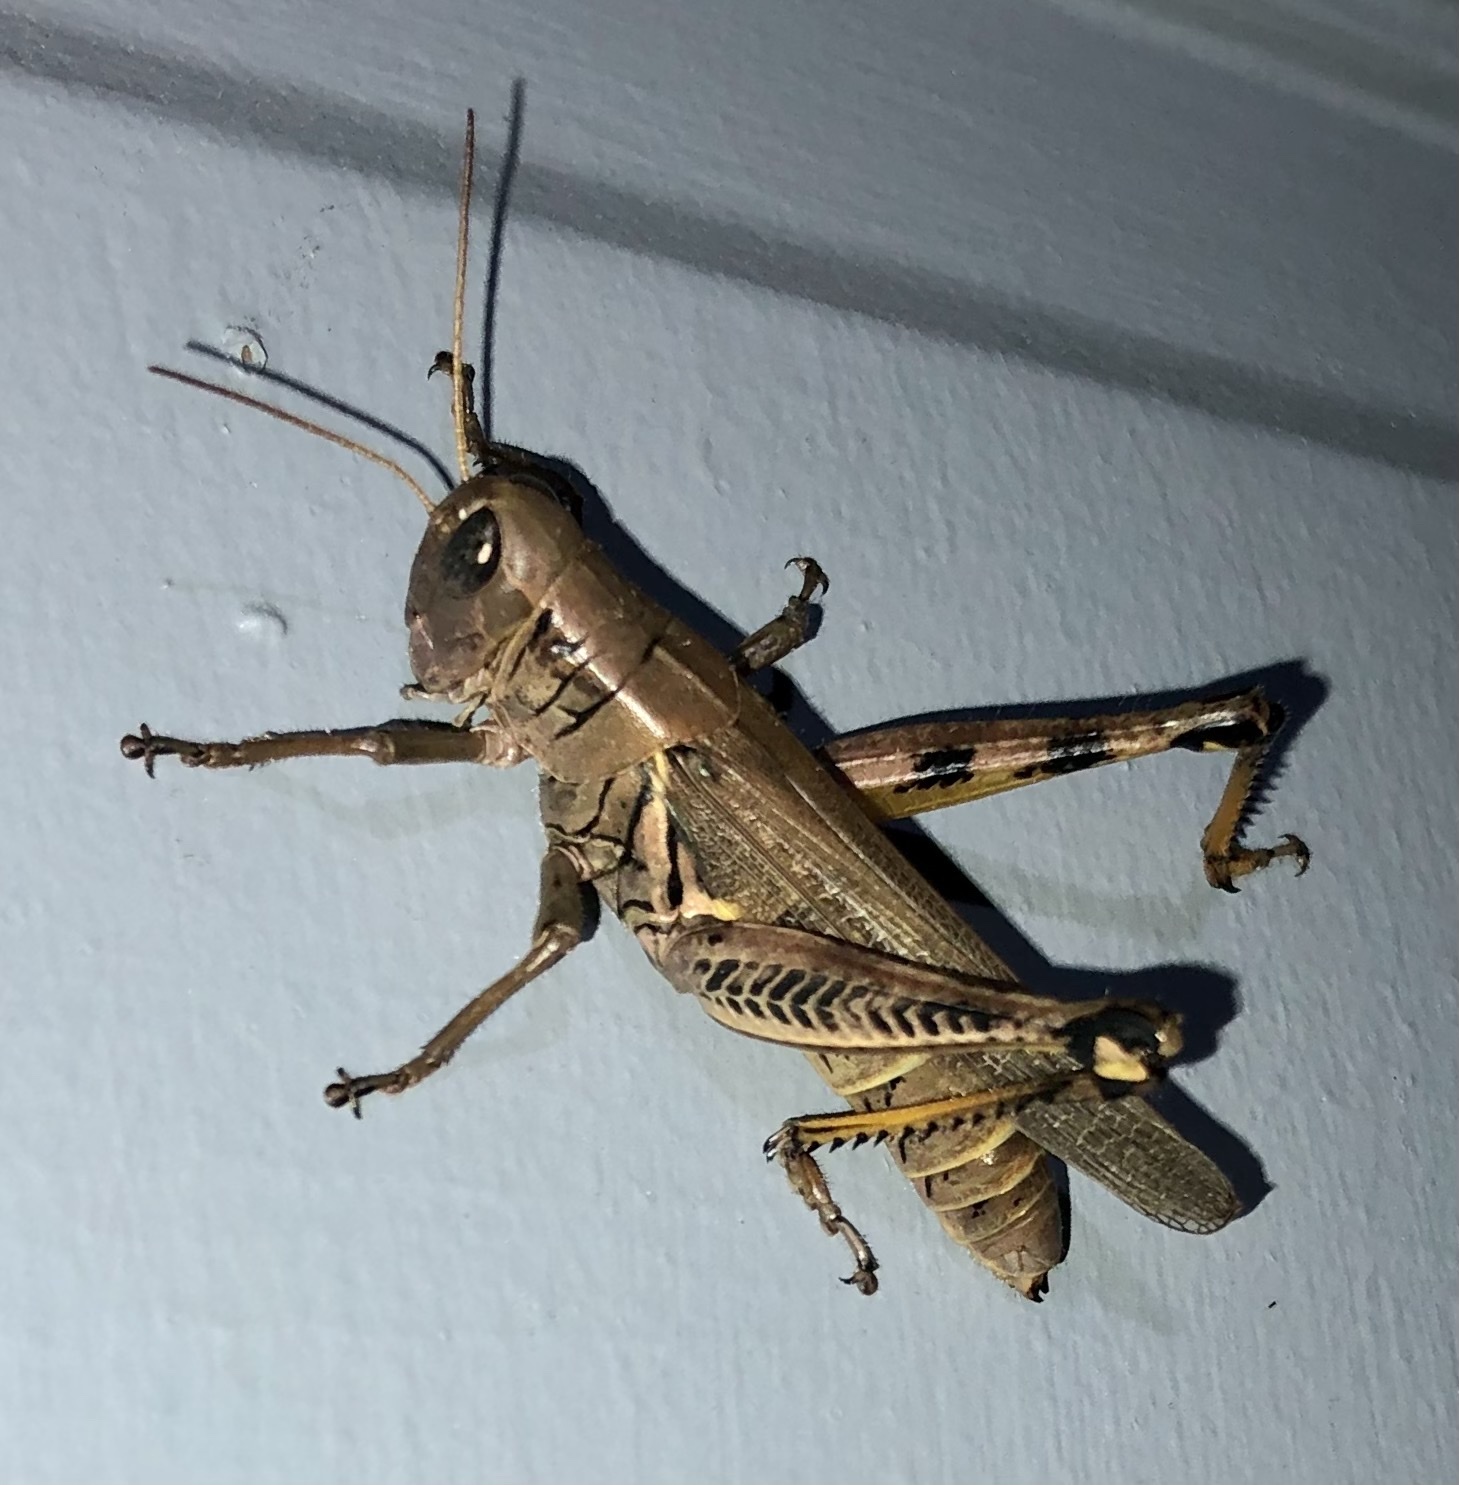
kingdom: Animalia
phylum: Arthropoda
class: Insecta
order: Orthoptera
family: Acrididae
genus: Melanoplus
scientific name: Melanoplus differentialis
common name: Differential grasshopper
